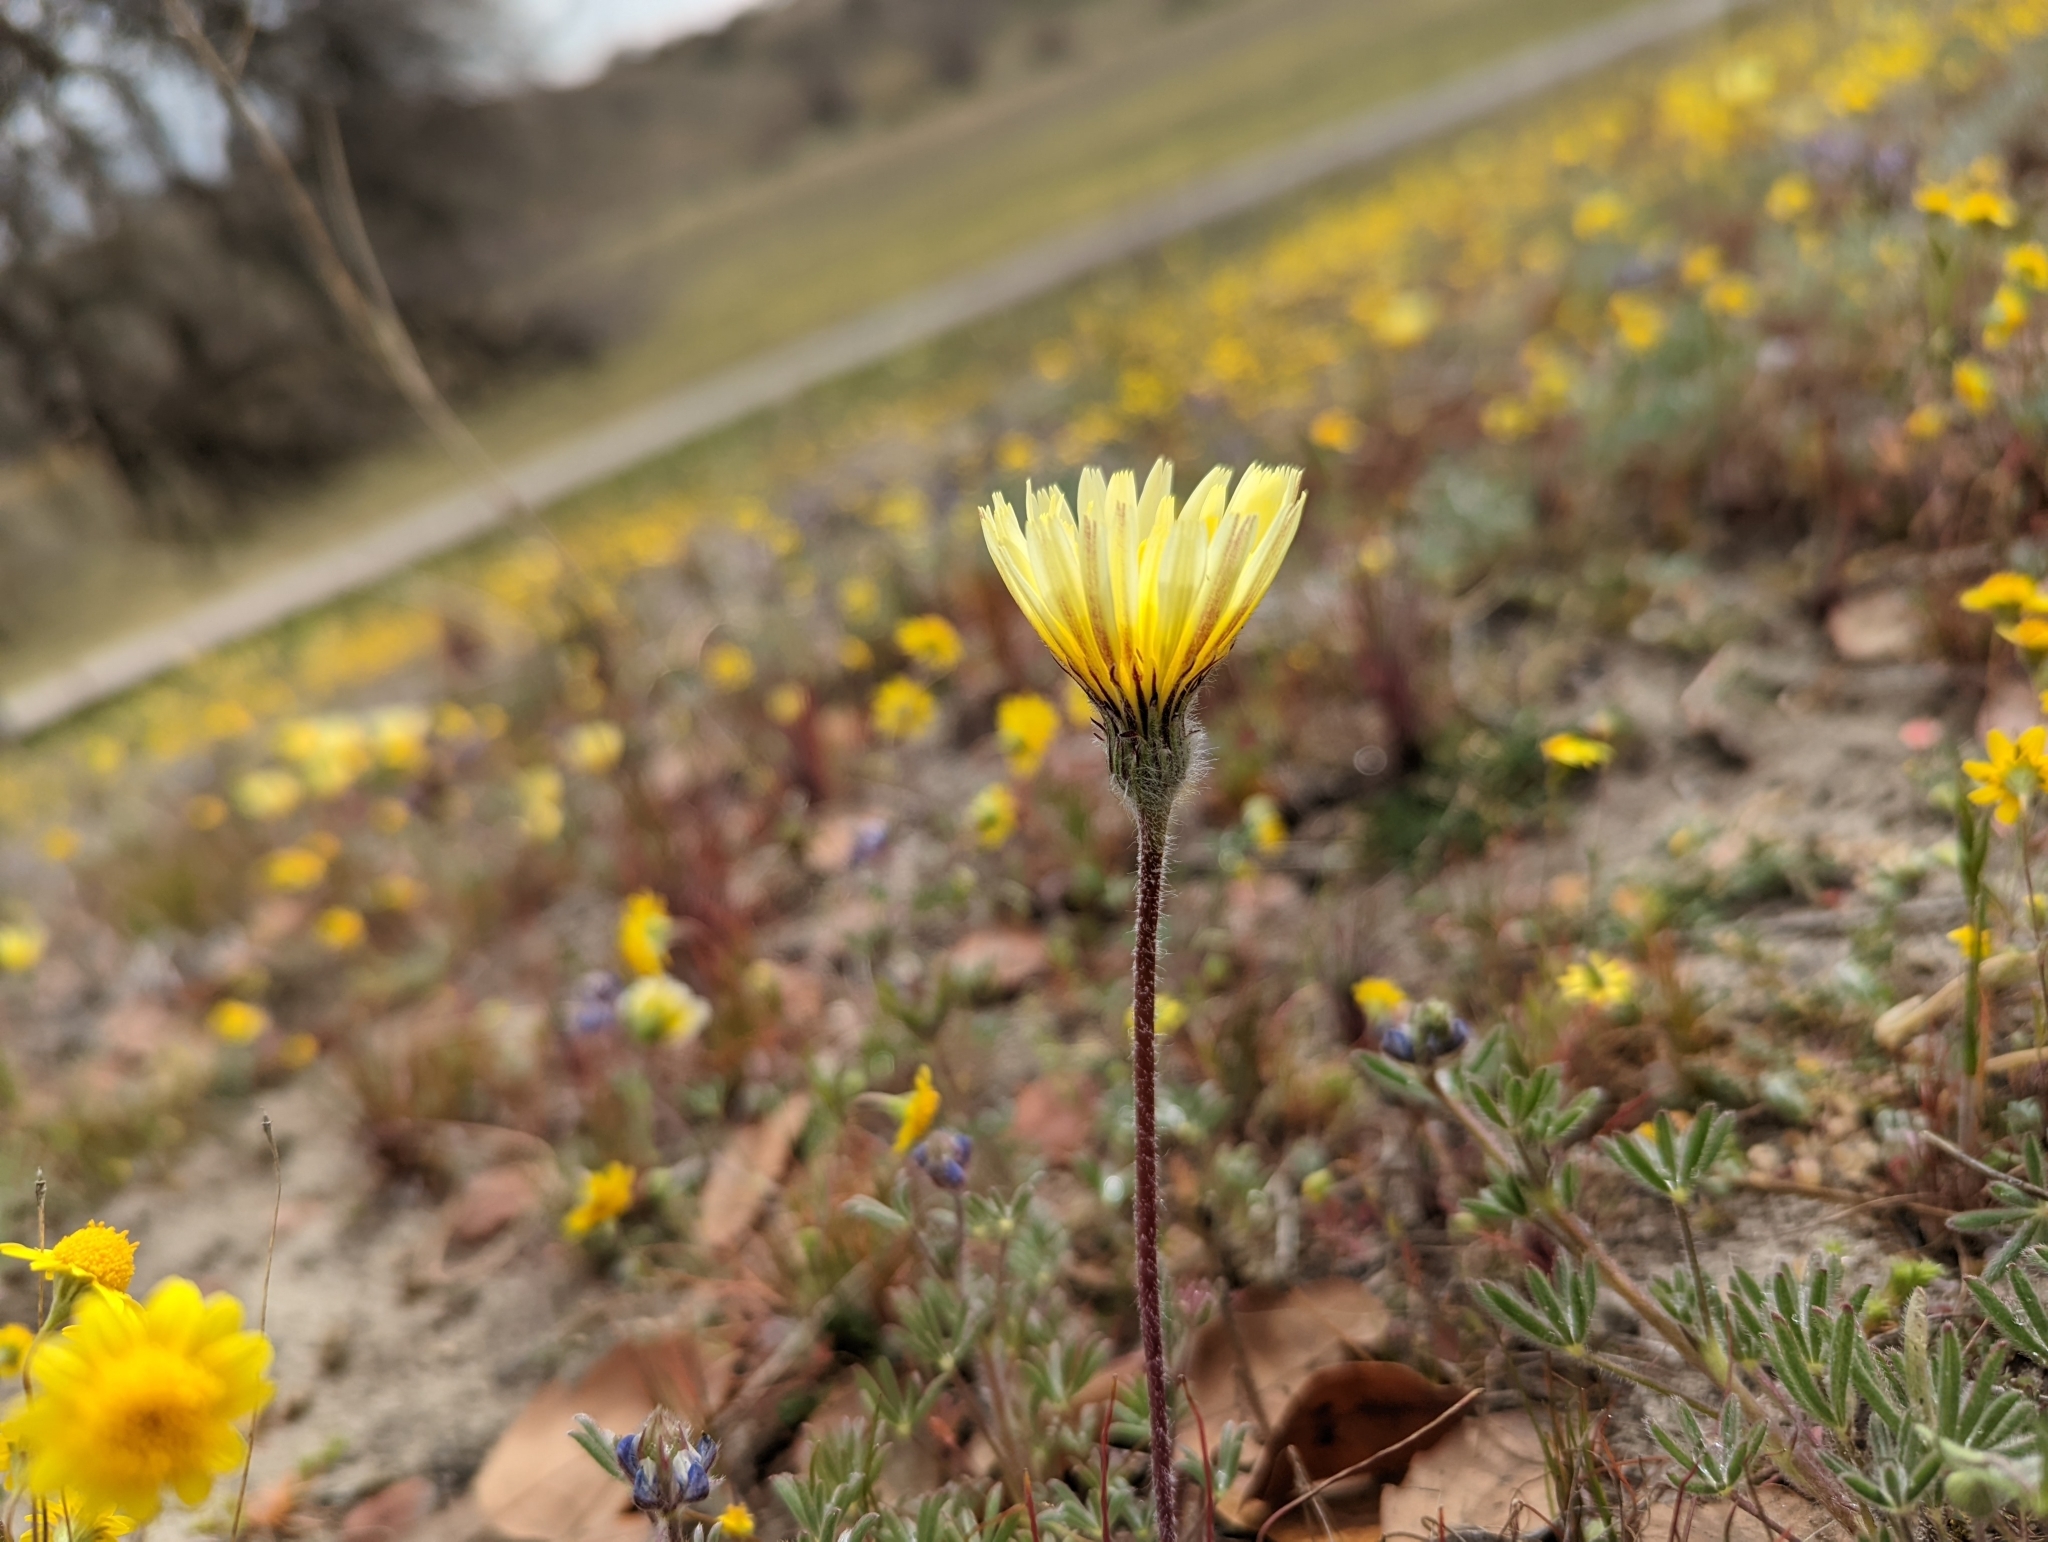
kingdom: Plantae
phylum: Tracheophyta
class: Magnoliopsida
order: Asterales
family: Asteraceae
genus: Malacothrix
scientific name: Malacothrix californica
